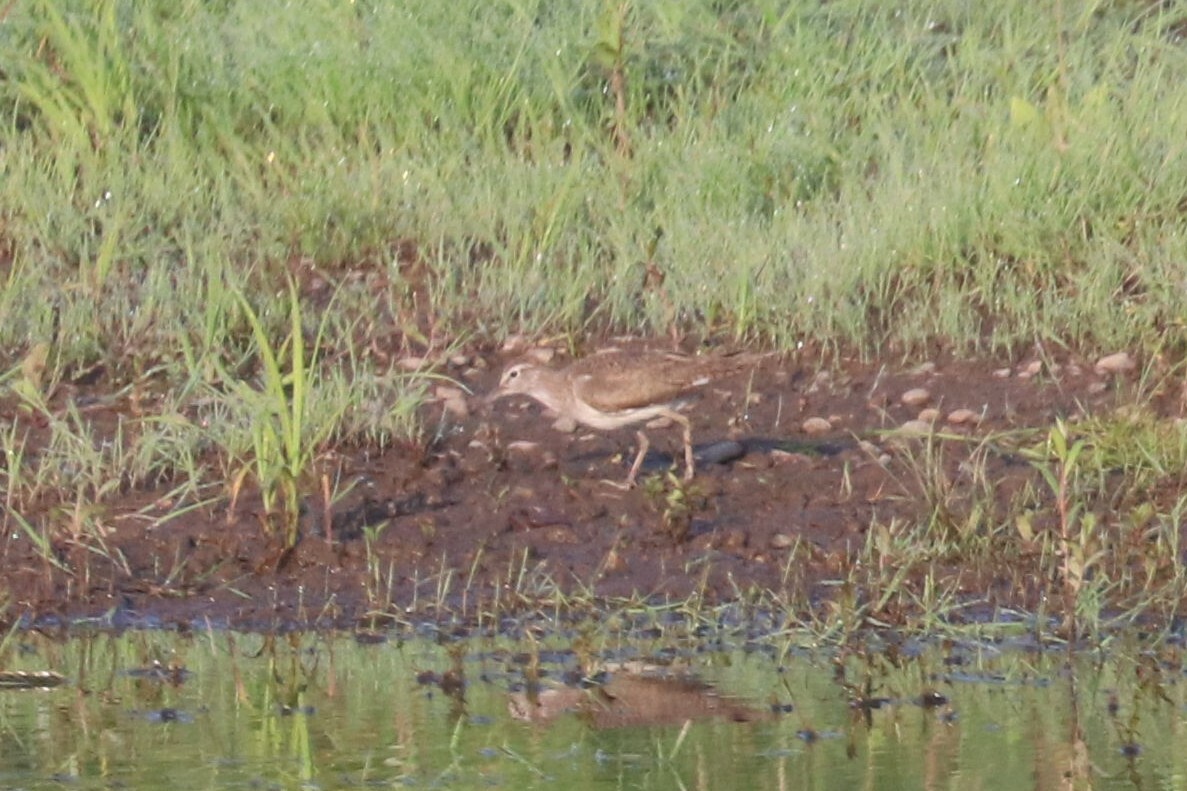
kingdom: Animalia
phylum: Chordata
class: Aves
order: Charadriiformes
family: Scolopacidae
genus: Actitis
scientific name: Actitis hypoleucos
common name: Common sandpiper
